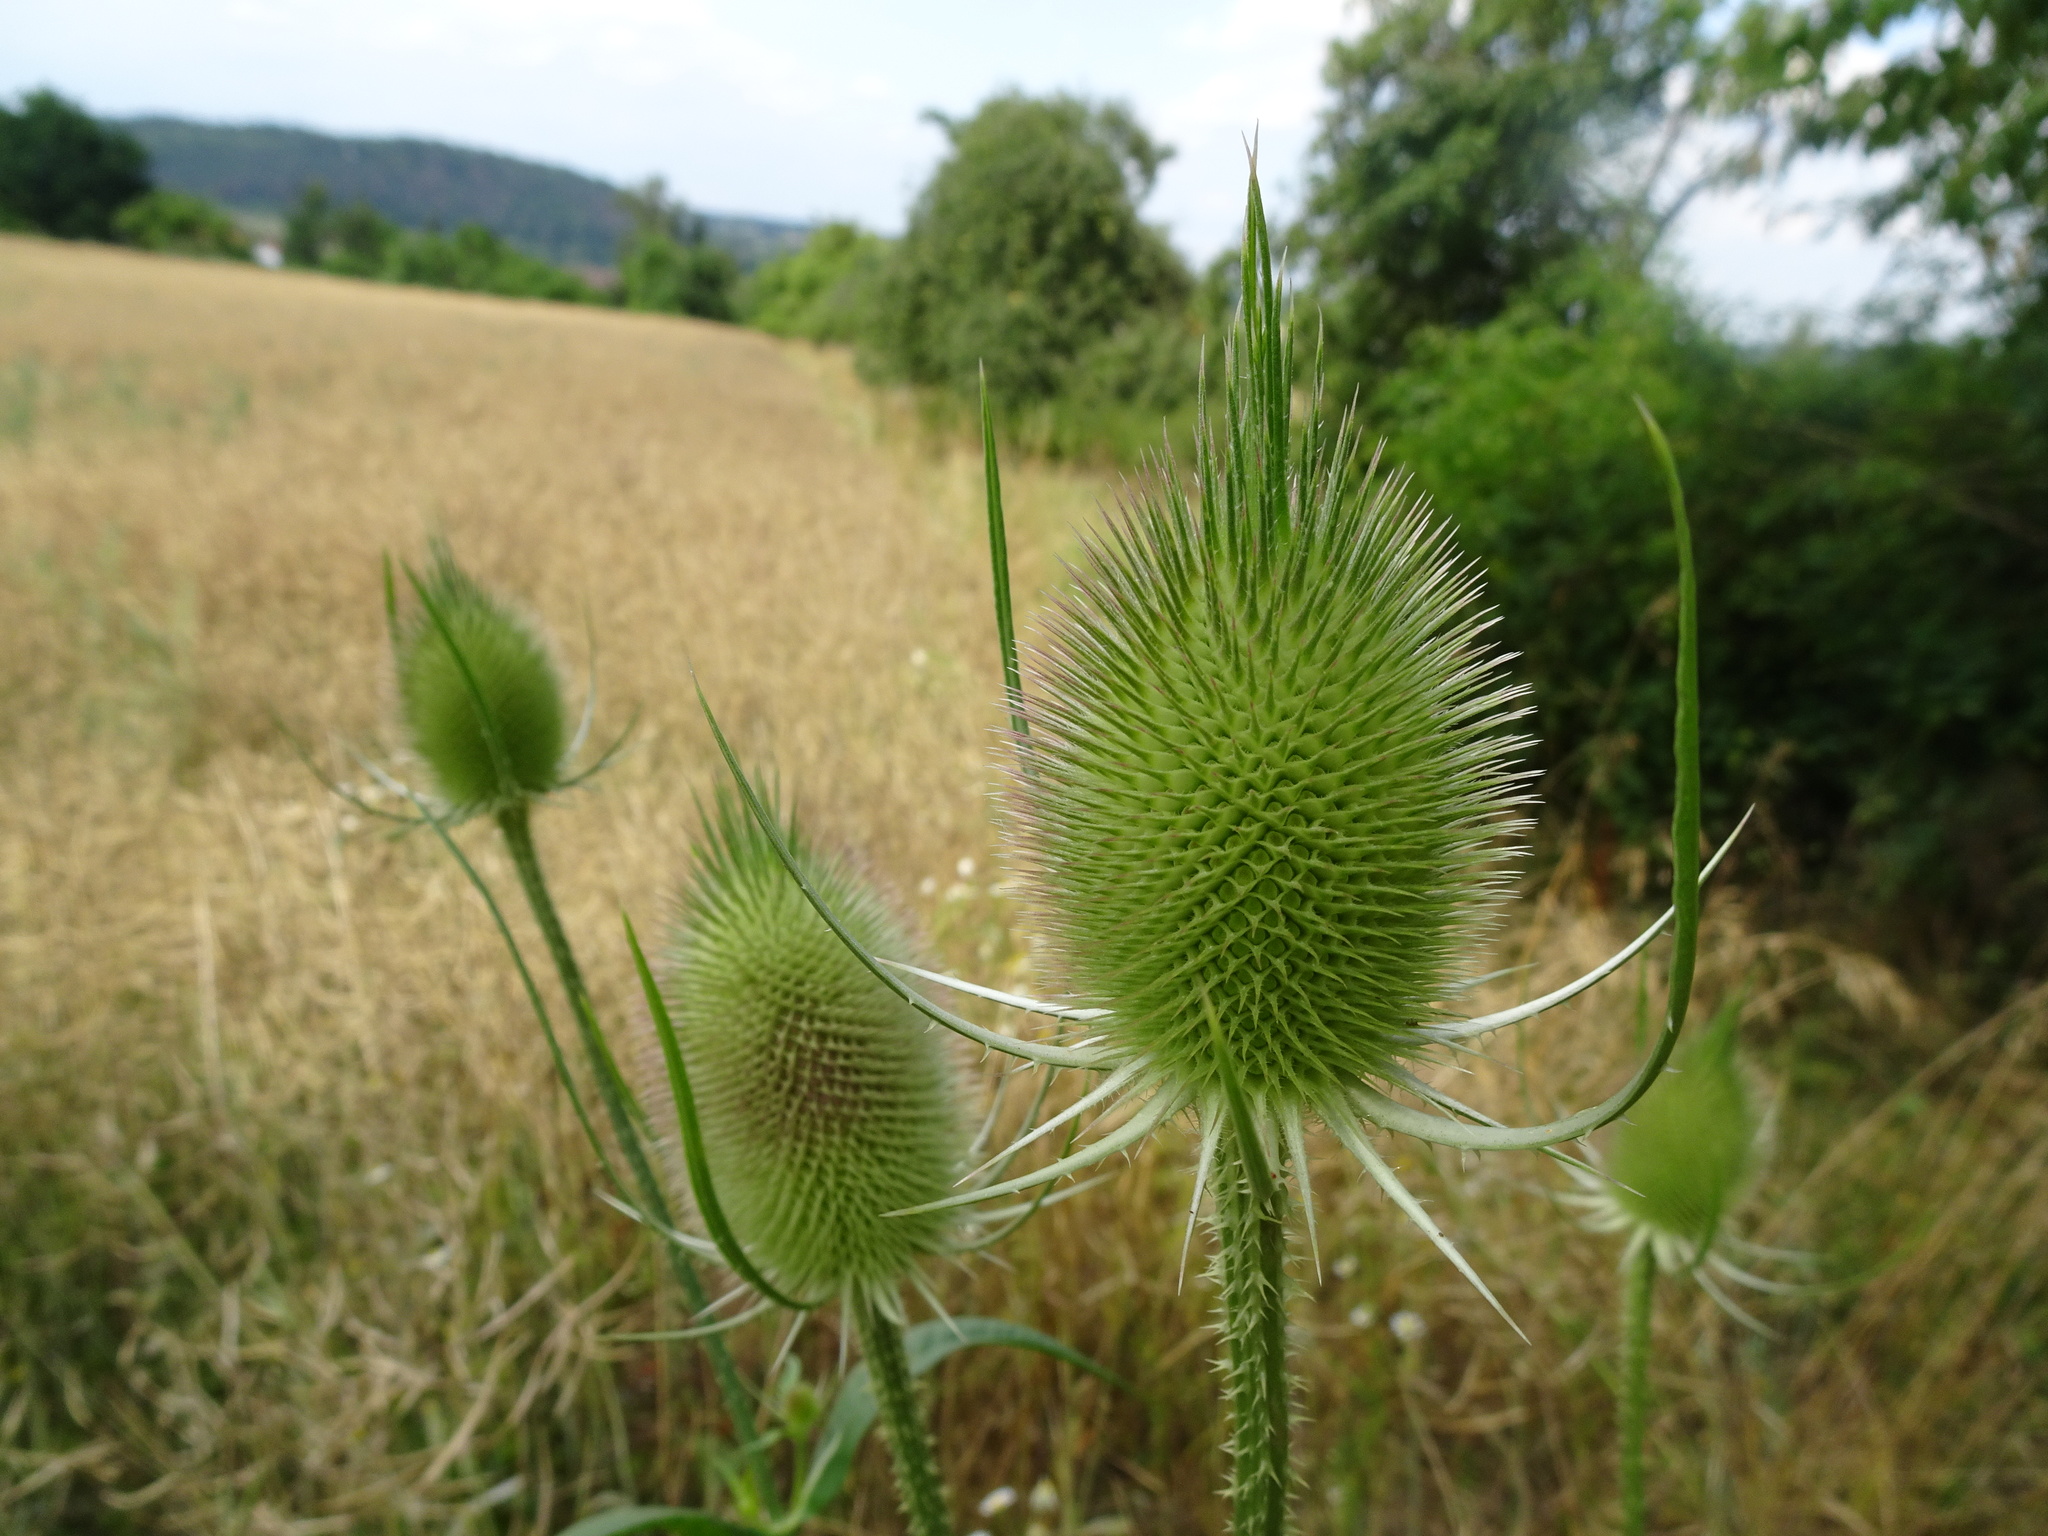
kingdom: Plantae
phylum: Tracheophyta
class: Magnoliopsida
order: Dipsacales
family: Caprifoliaceae
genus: Dipsacus
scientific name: Dipsacus fullonum
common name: Teasel
